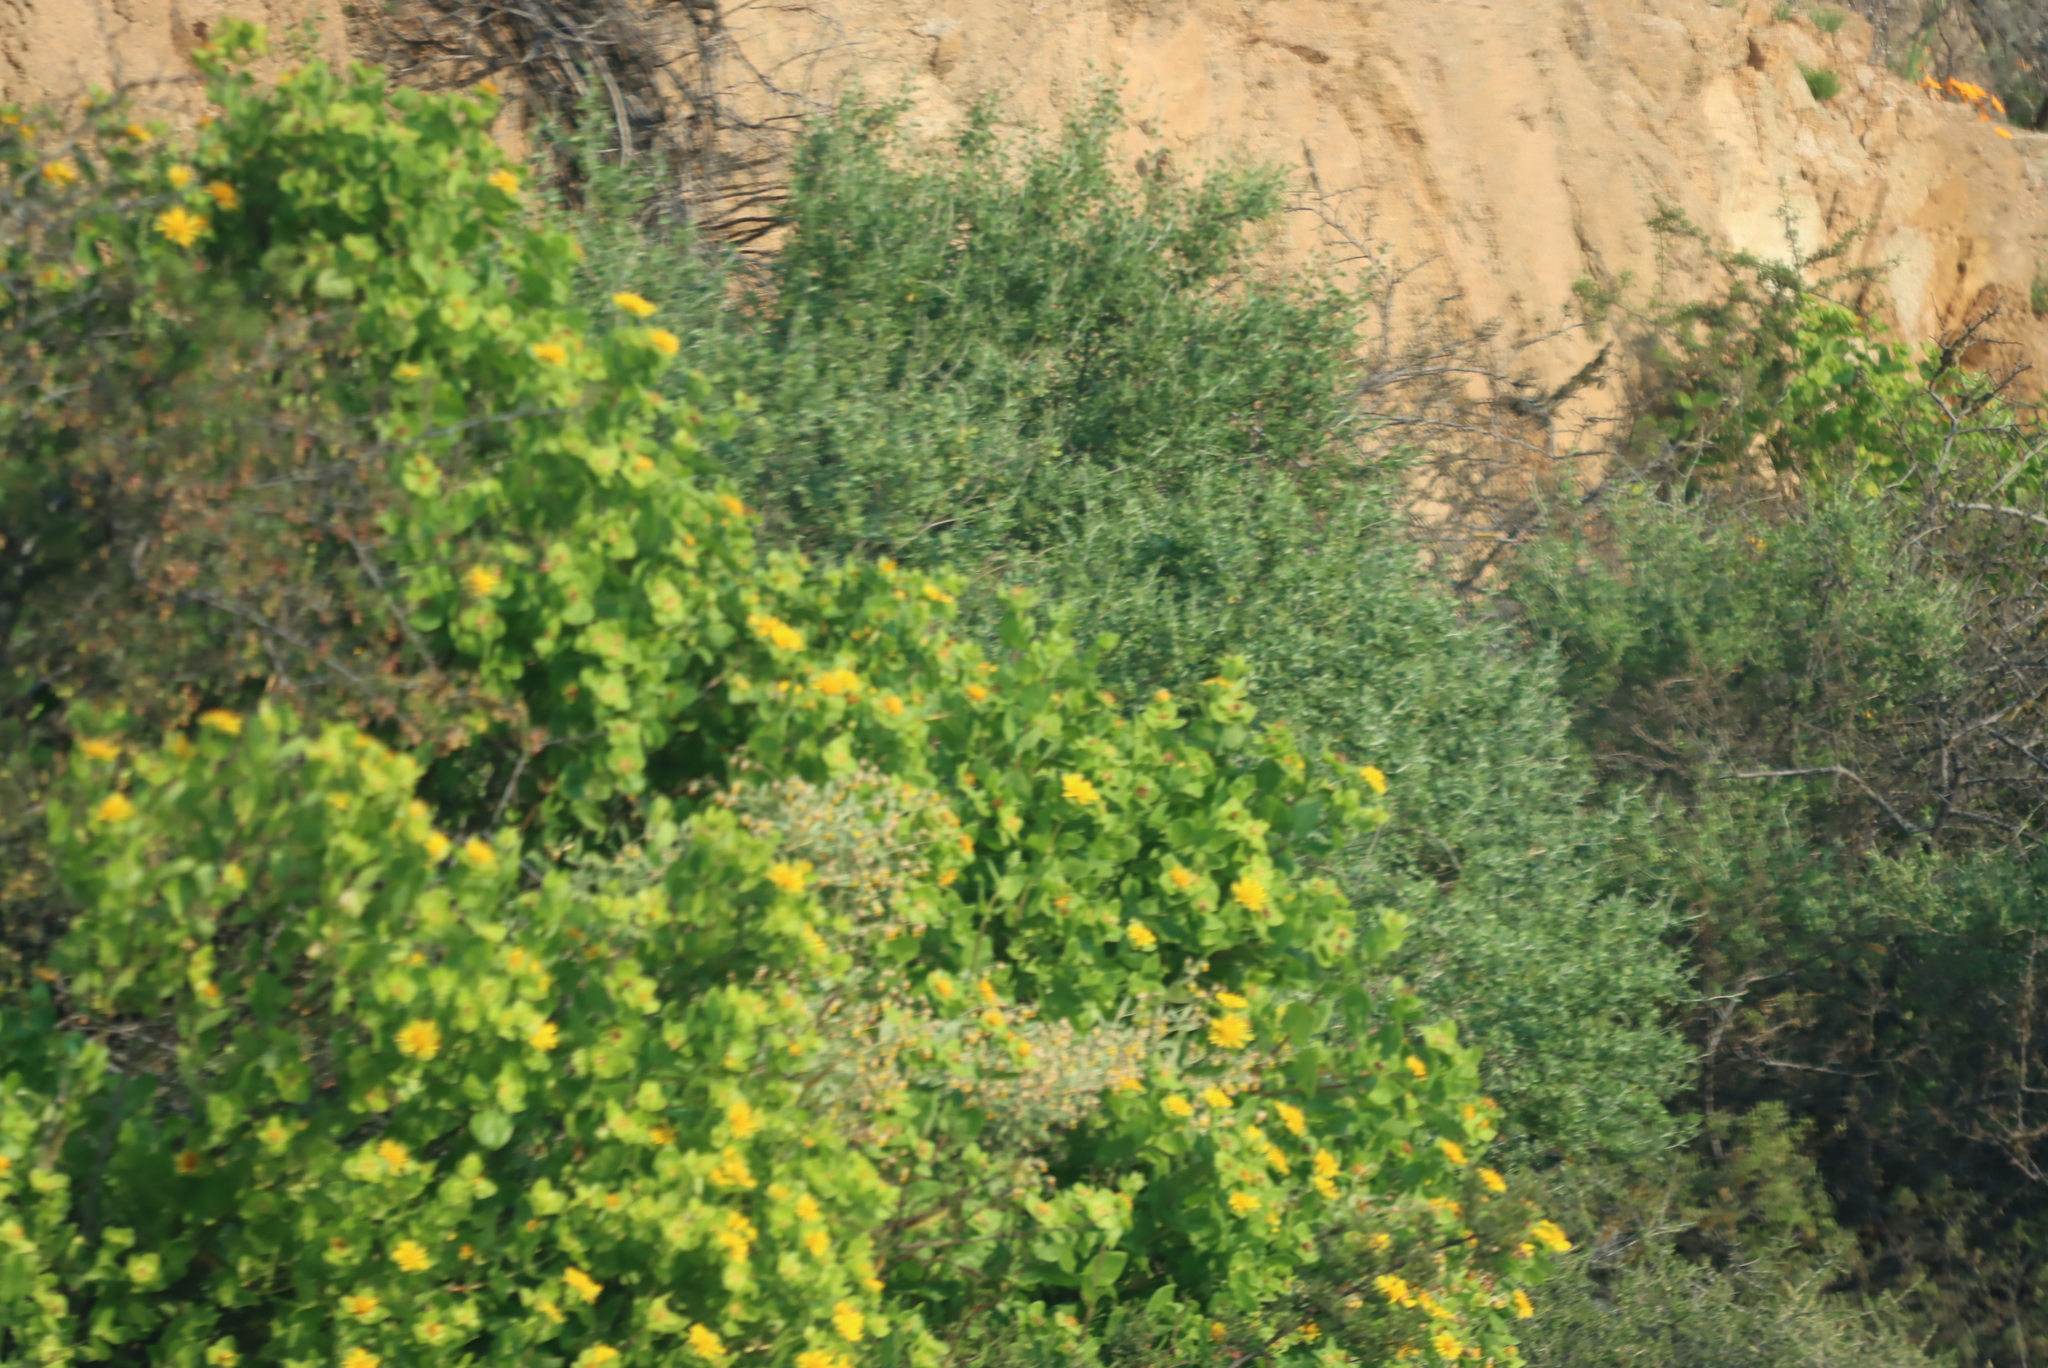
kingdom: Plantae
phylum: Tracheophyta
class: Magnoliopsida
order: Asterales
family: Asteraceae
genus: Didelta
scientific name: Didelta spinosa
